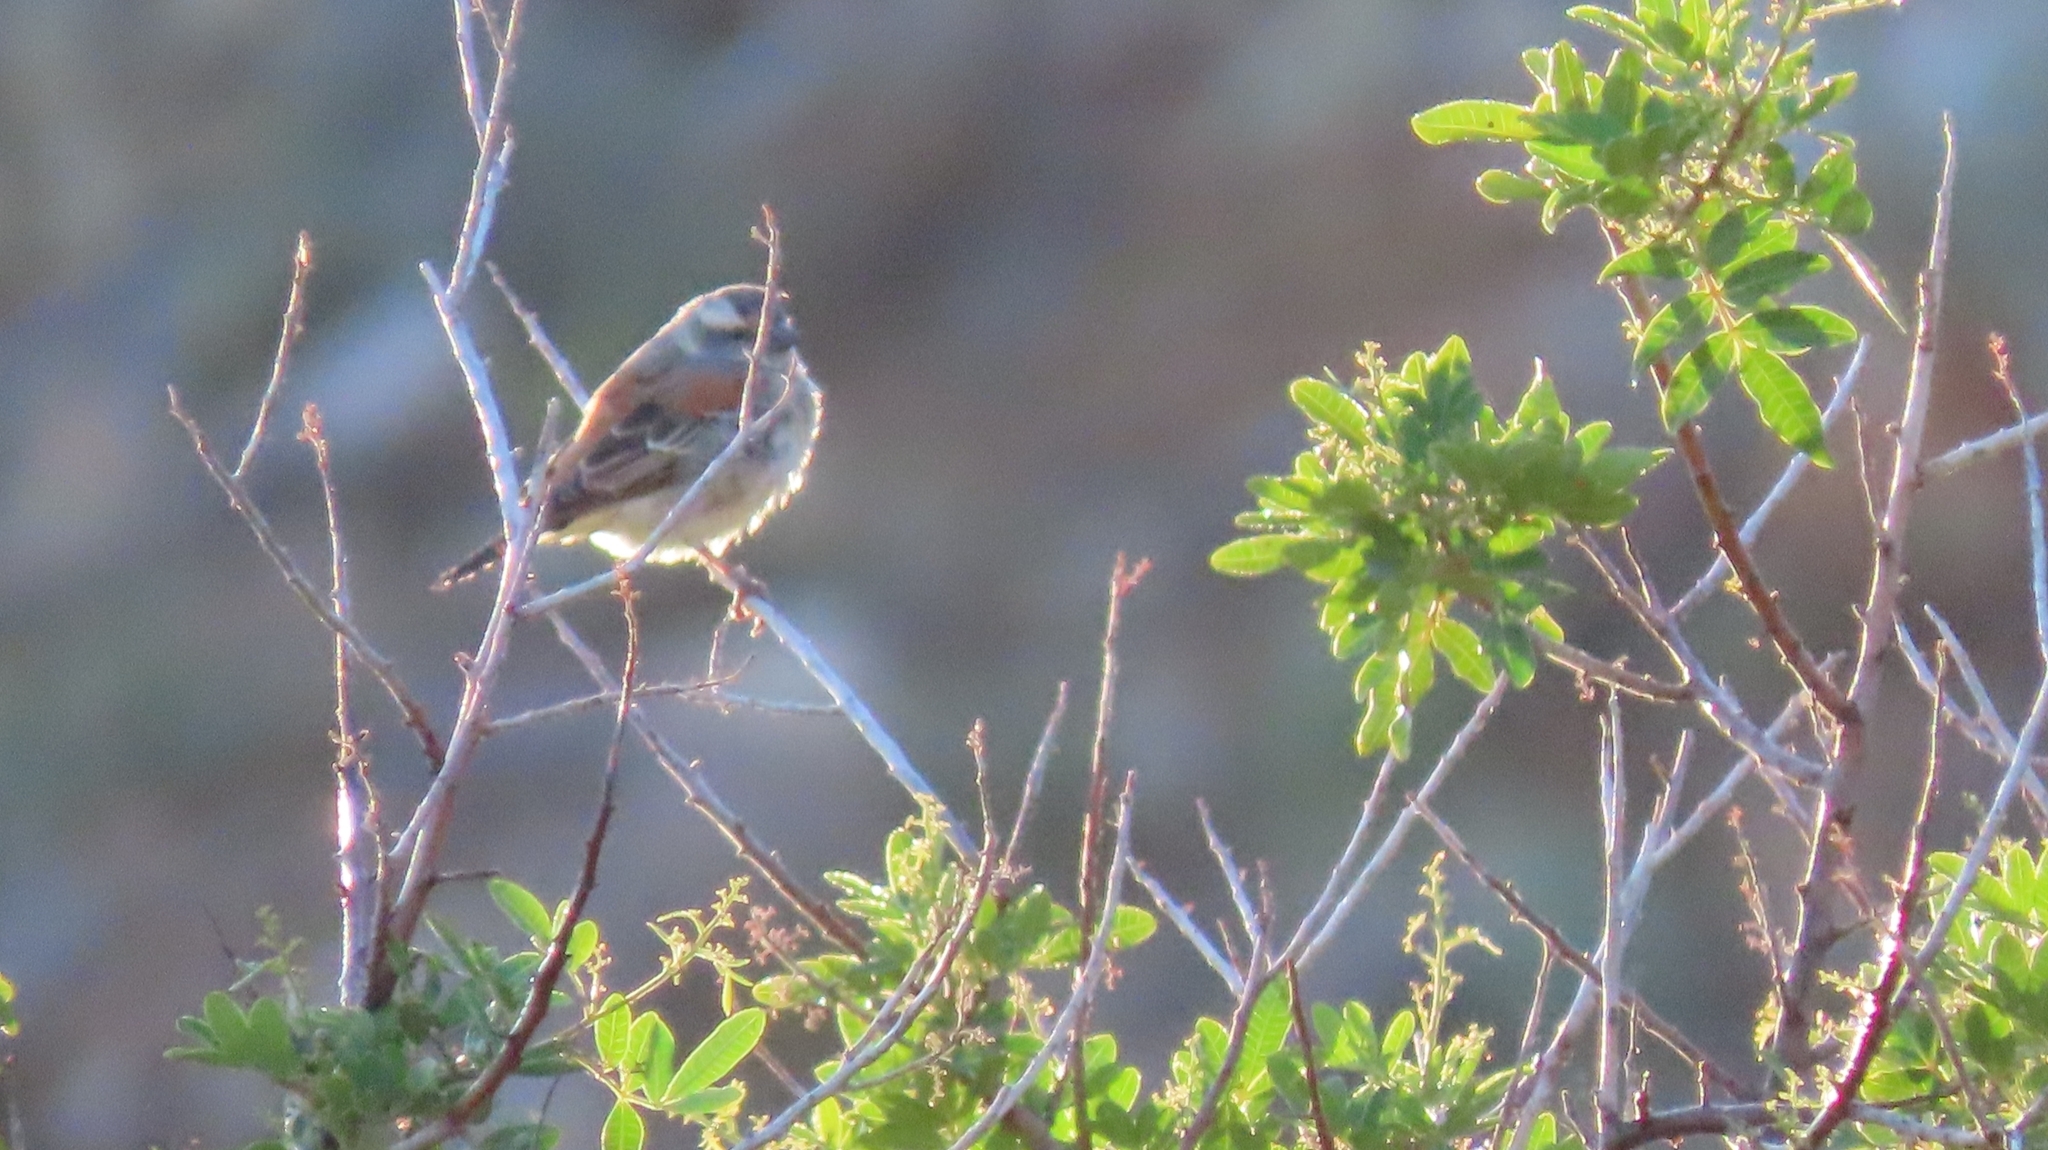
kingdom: Animalia
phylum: Chordata
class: Aves
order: Passeriformes
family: Passeridae
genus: Passer
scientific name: Passer melanurus
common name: Cape sparrow
